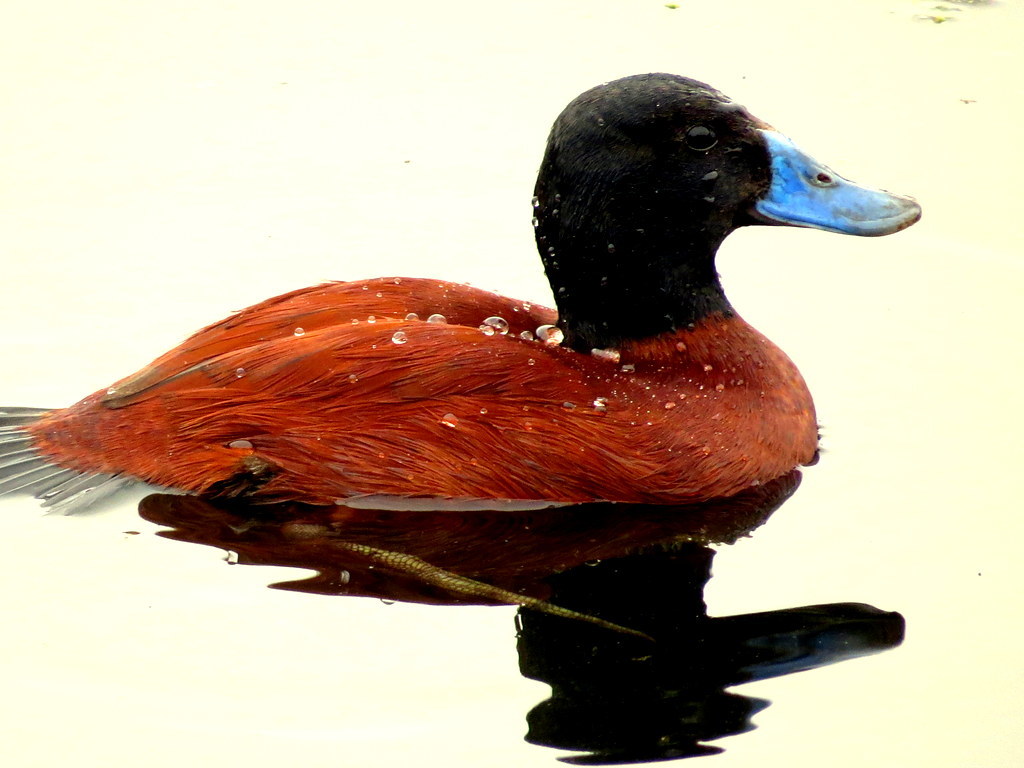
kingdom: Animalia
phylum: Chordata
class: Aves
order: Anseriformes
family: Anatidae
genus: Oxyura
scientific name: Oxyura vittata
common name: Lake duck
